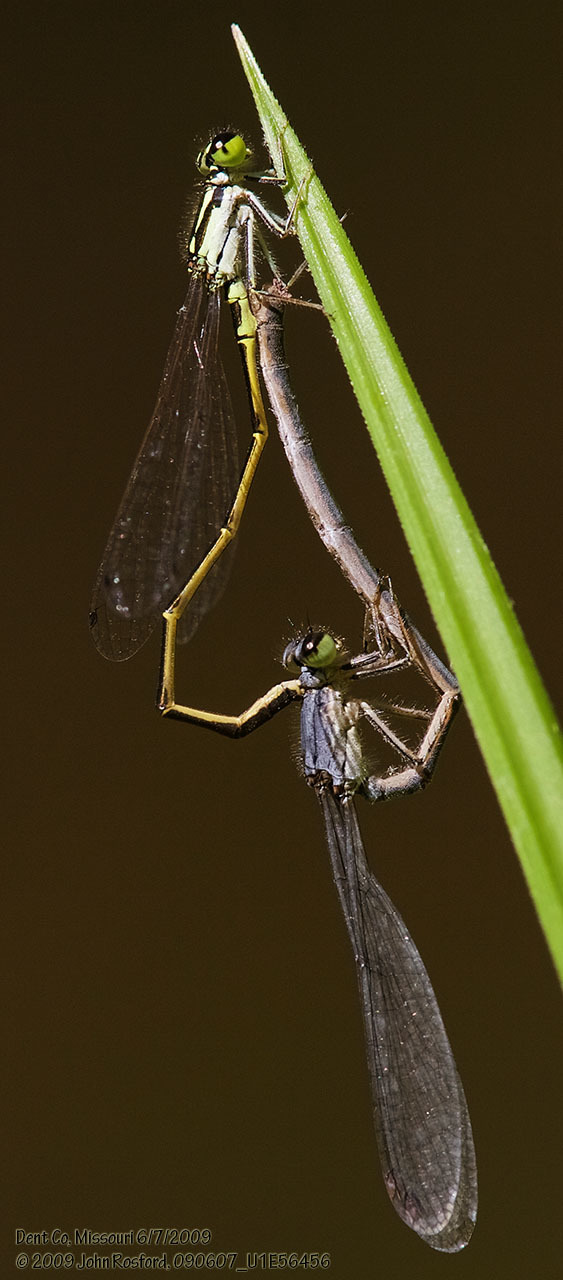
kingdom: Animalia
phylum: Arthropoda
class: Insecta
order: Odonata
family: Coenagrionidae
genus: Ischnura
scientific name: Ischnura posita
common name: Fragile forktail
